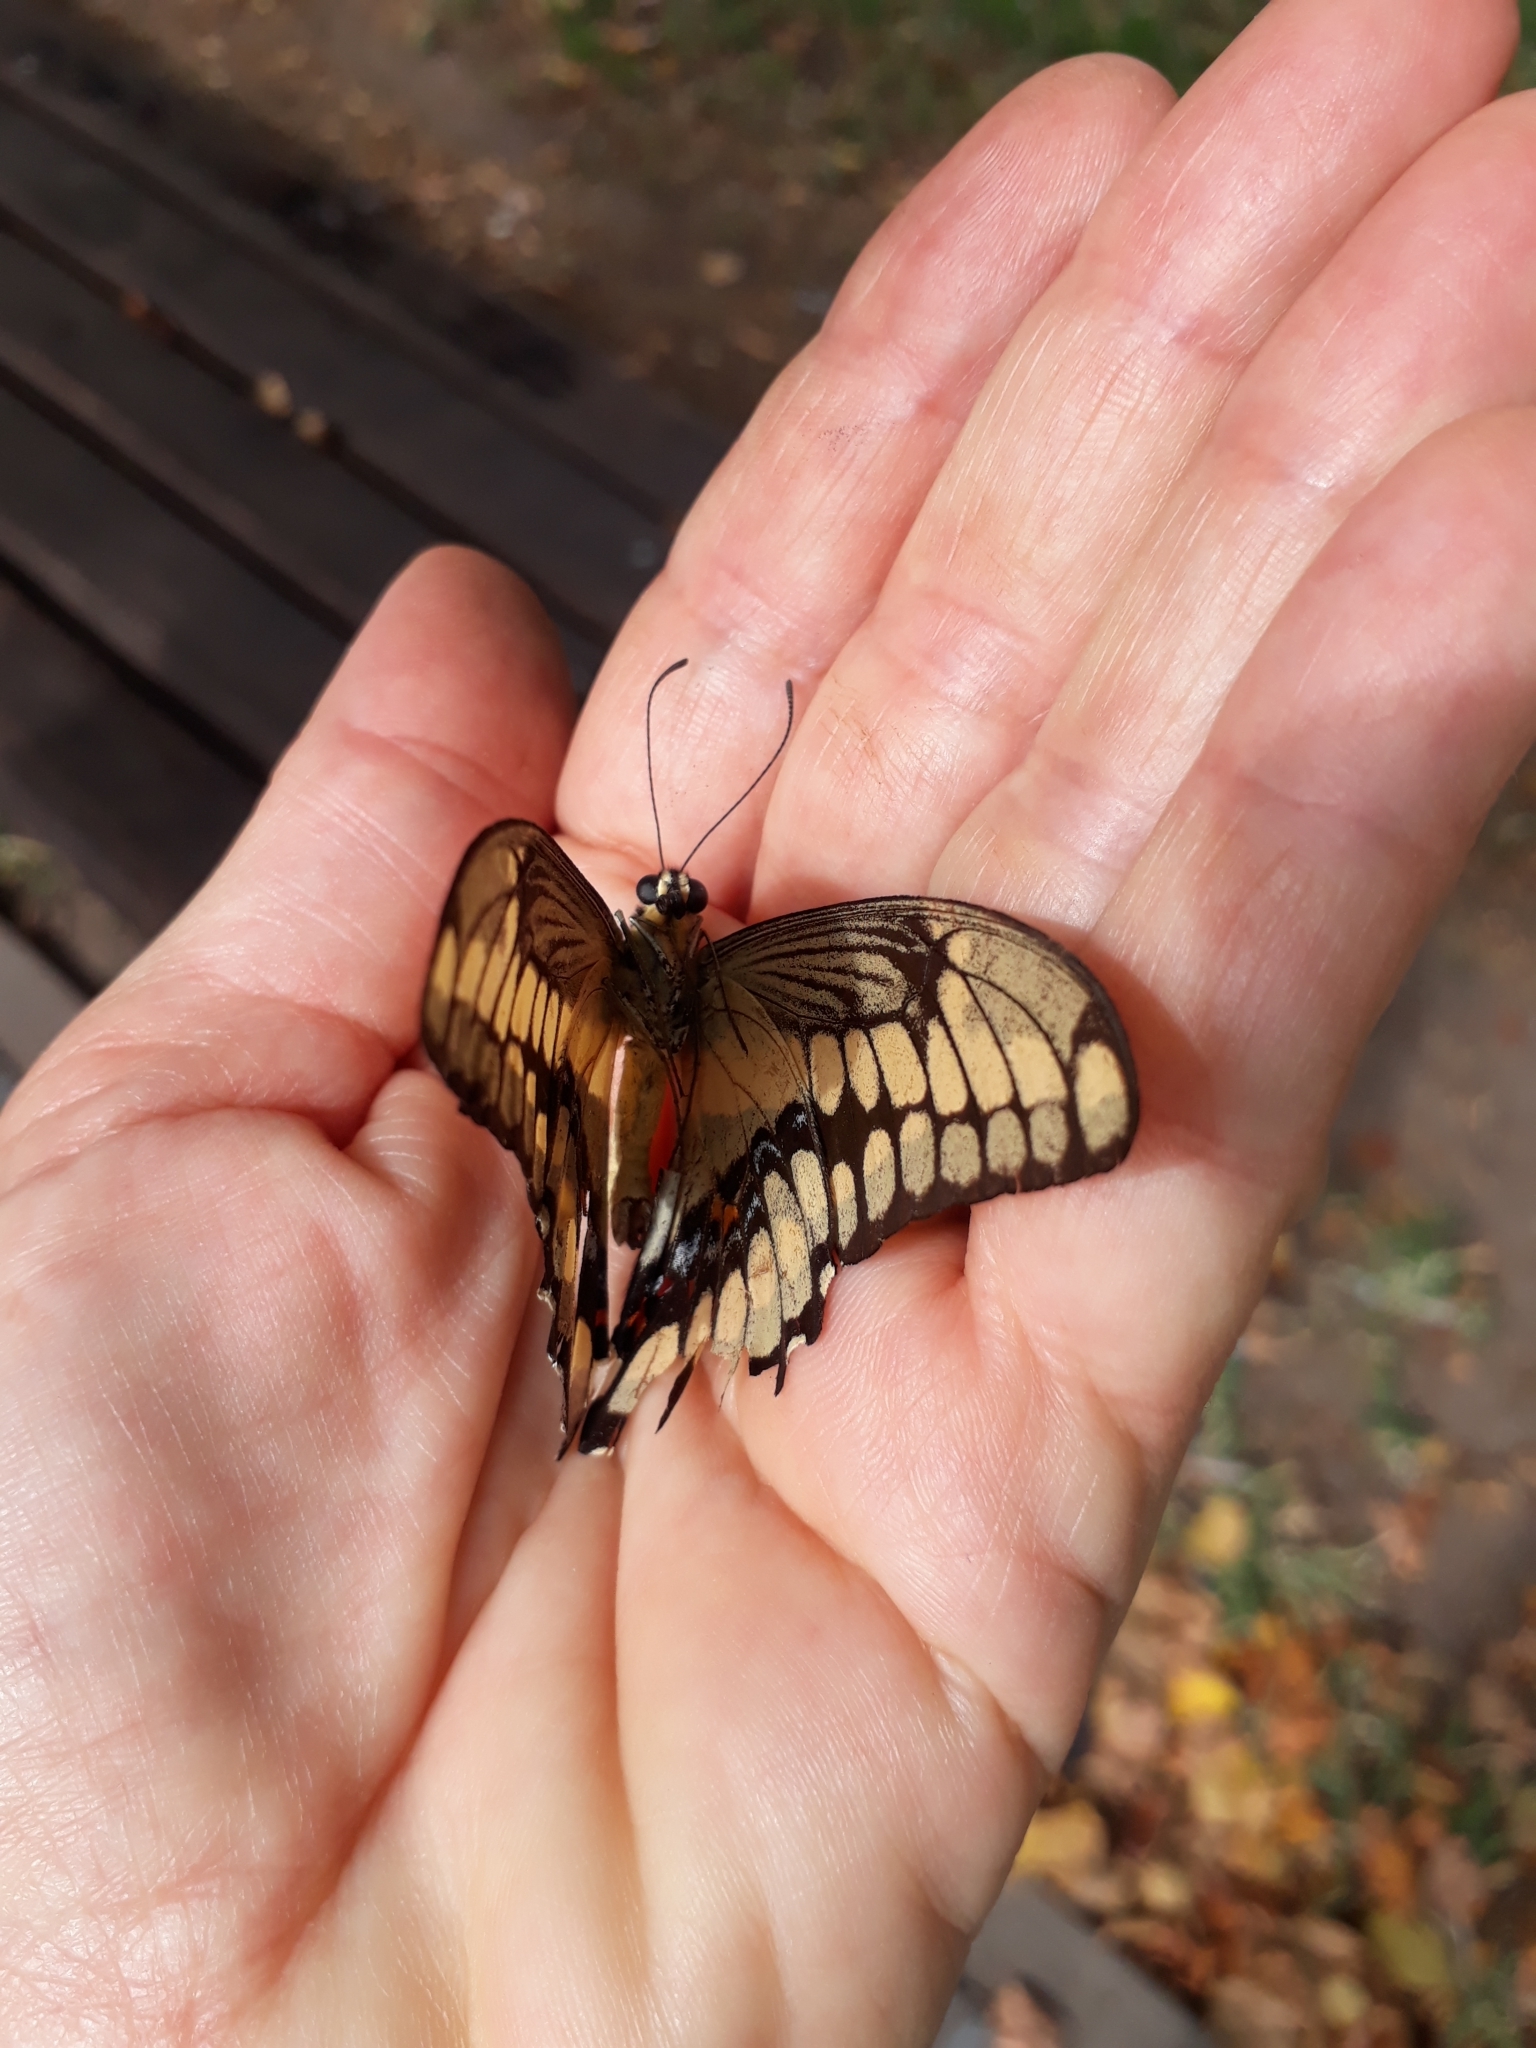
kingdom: Animalia
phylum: Arthropoda
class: Insecta
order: Lepidoptera
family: Papilionidae
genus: Papilio
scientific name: Papilio thoas
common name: King swallowtail
